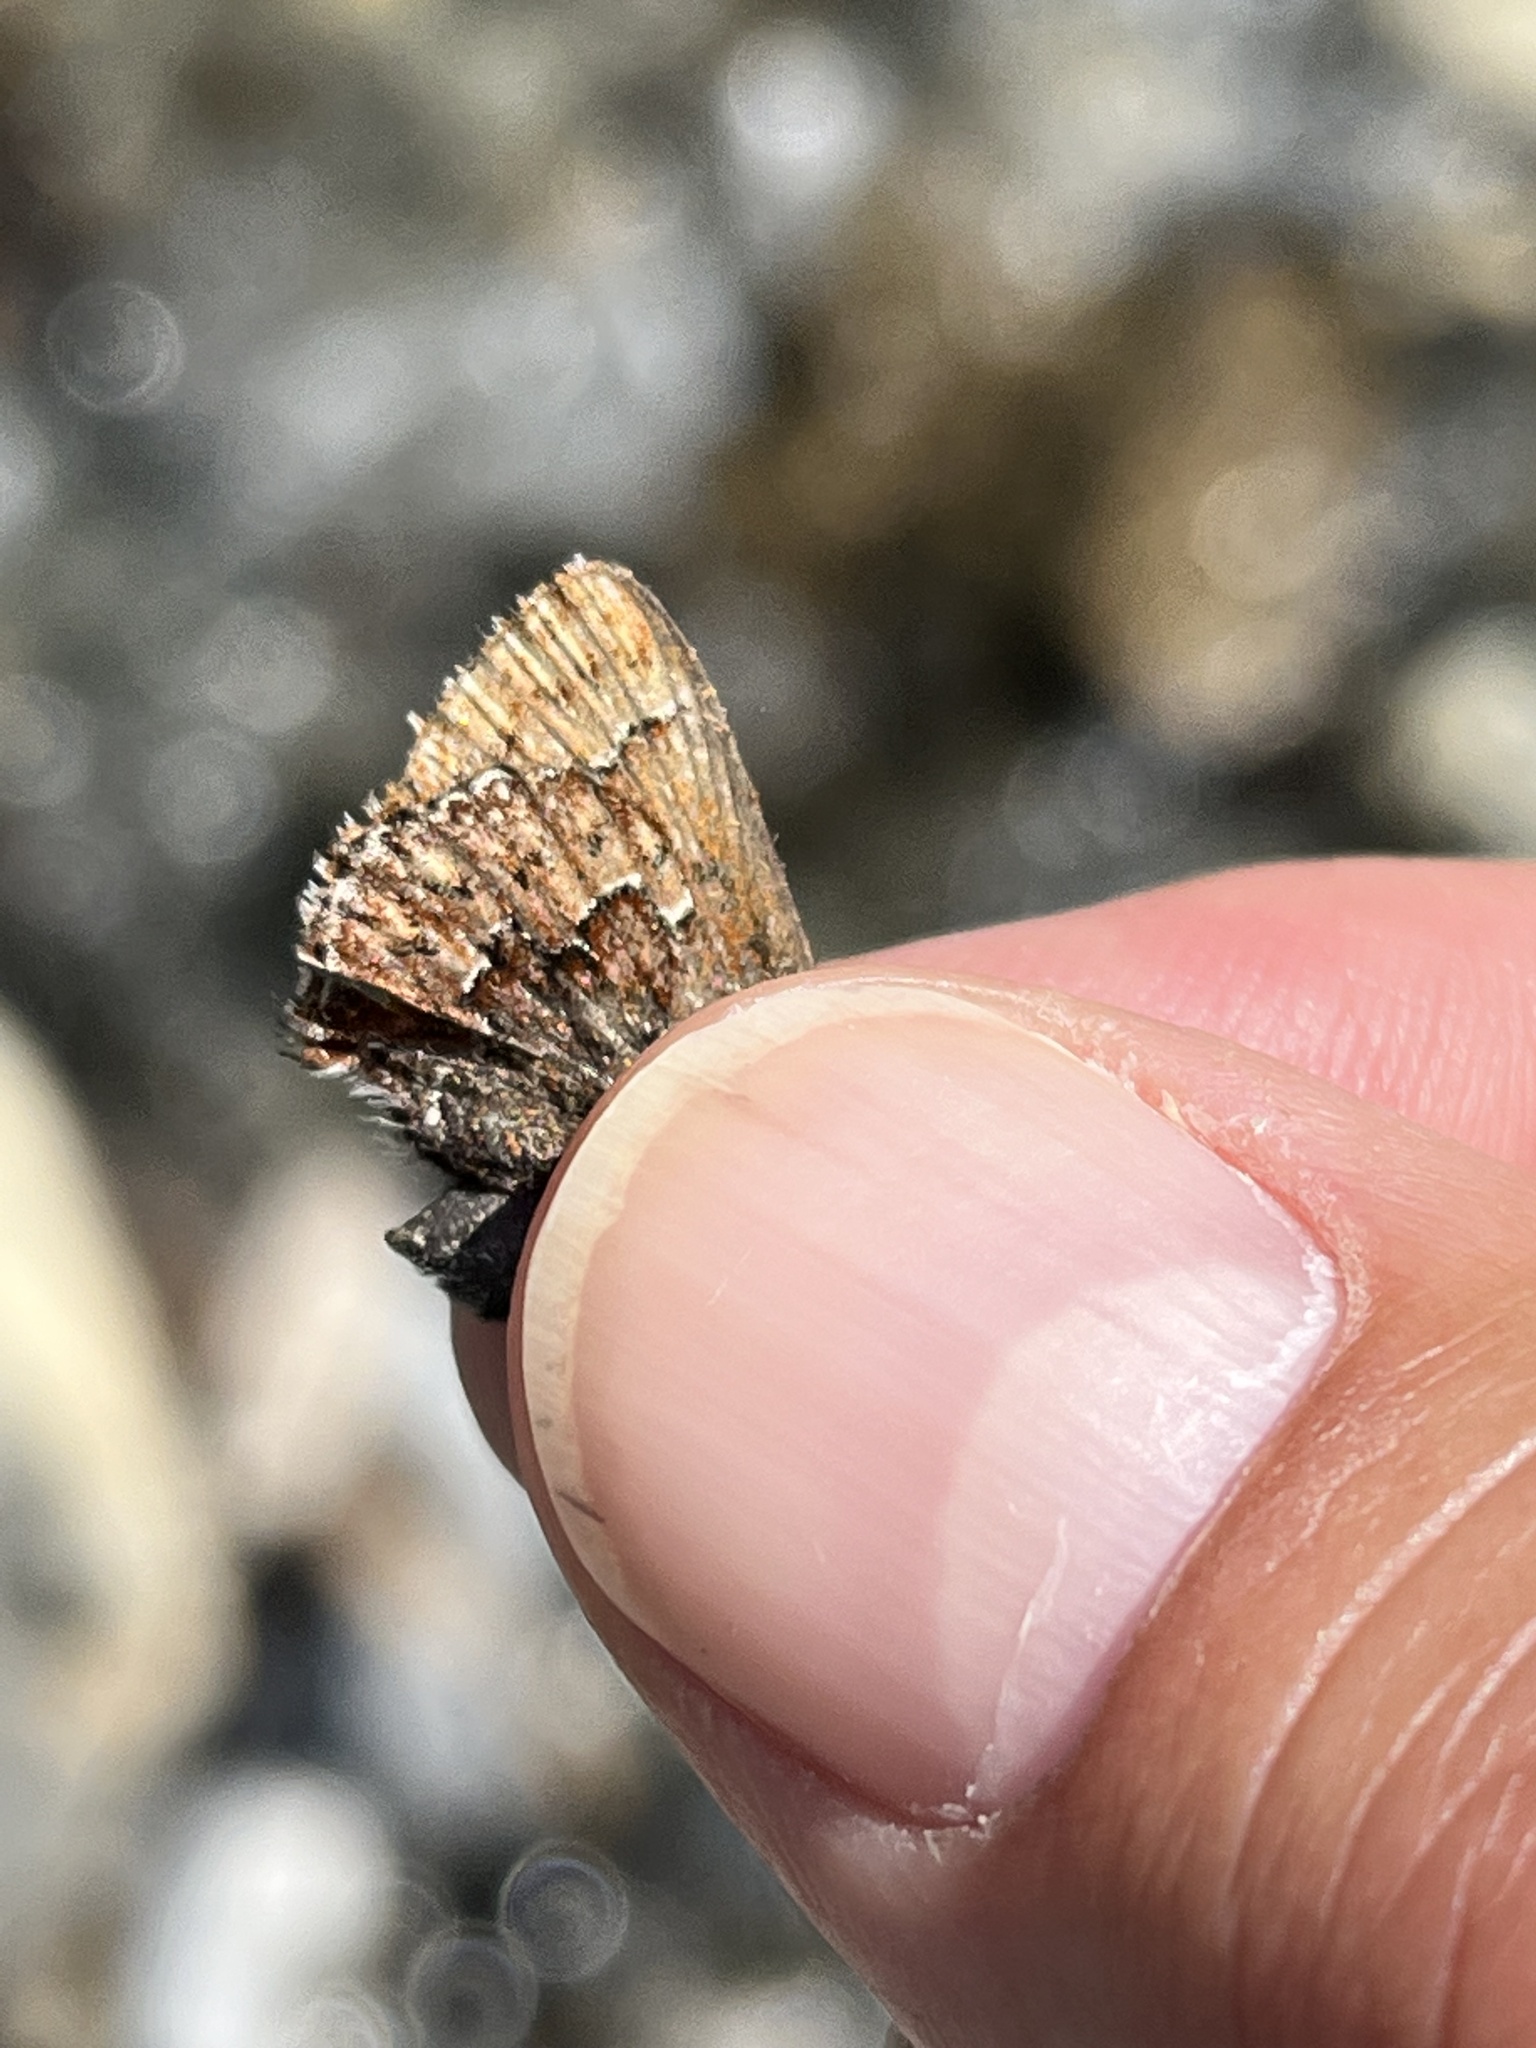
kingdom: Animalia
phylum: Arthropoda
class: Insecta
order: Lepidoptera
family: Lycaenidae
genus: Incisalia
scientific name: Incisalia eryphon
